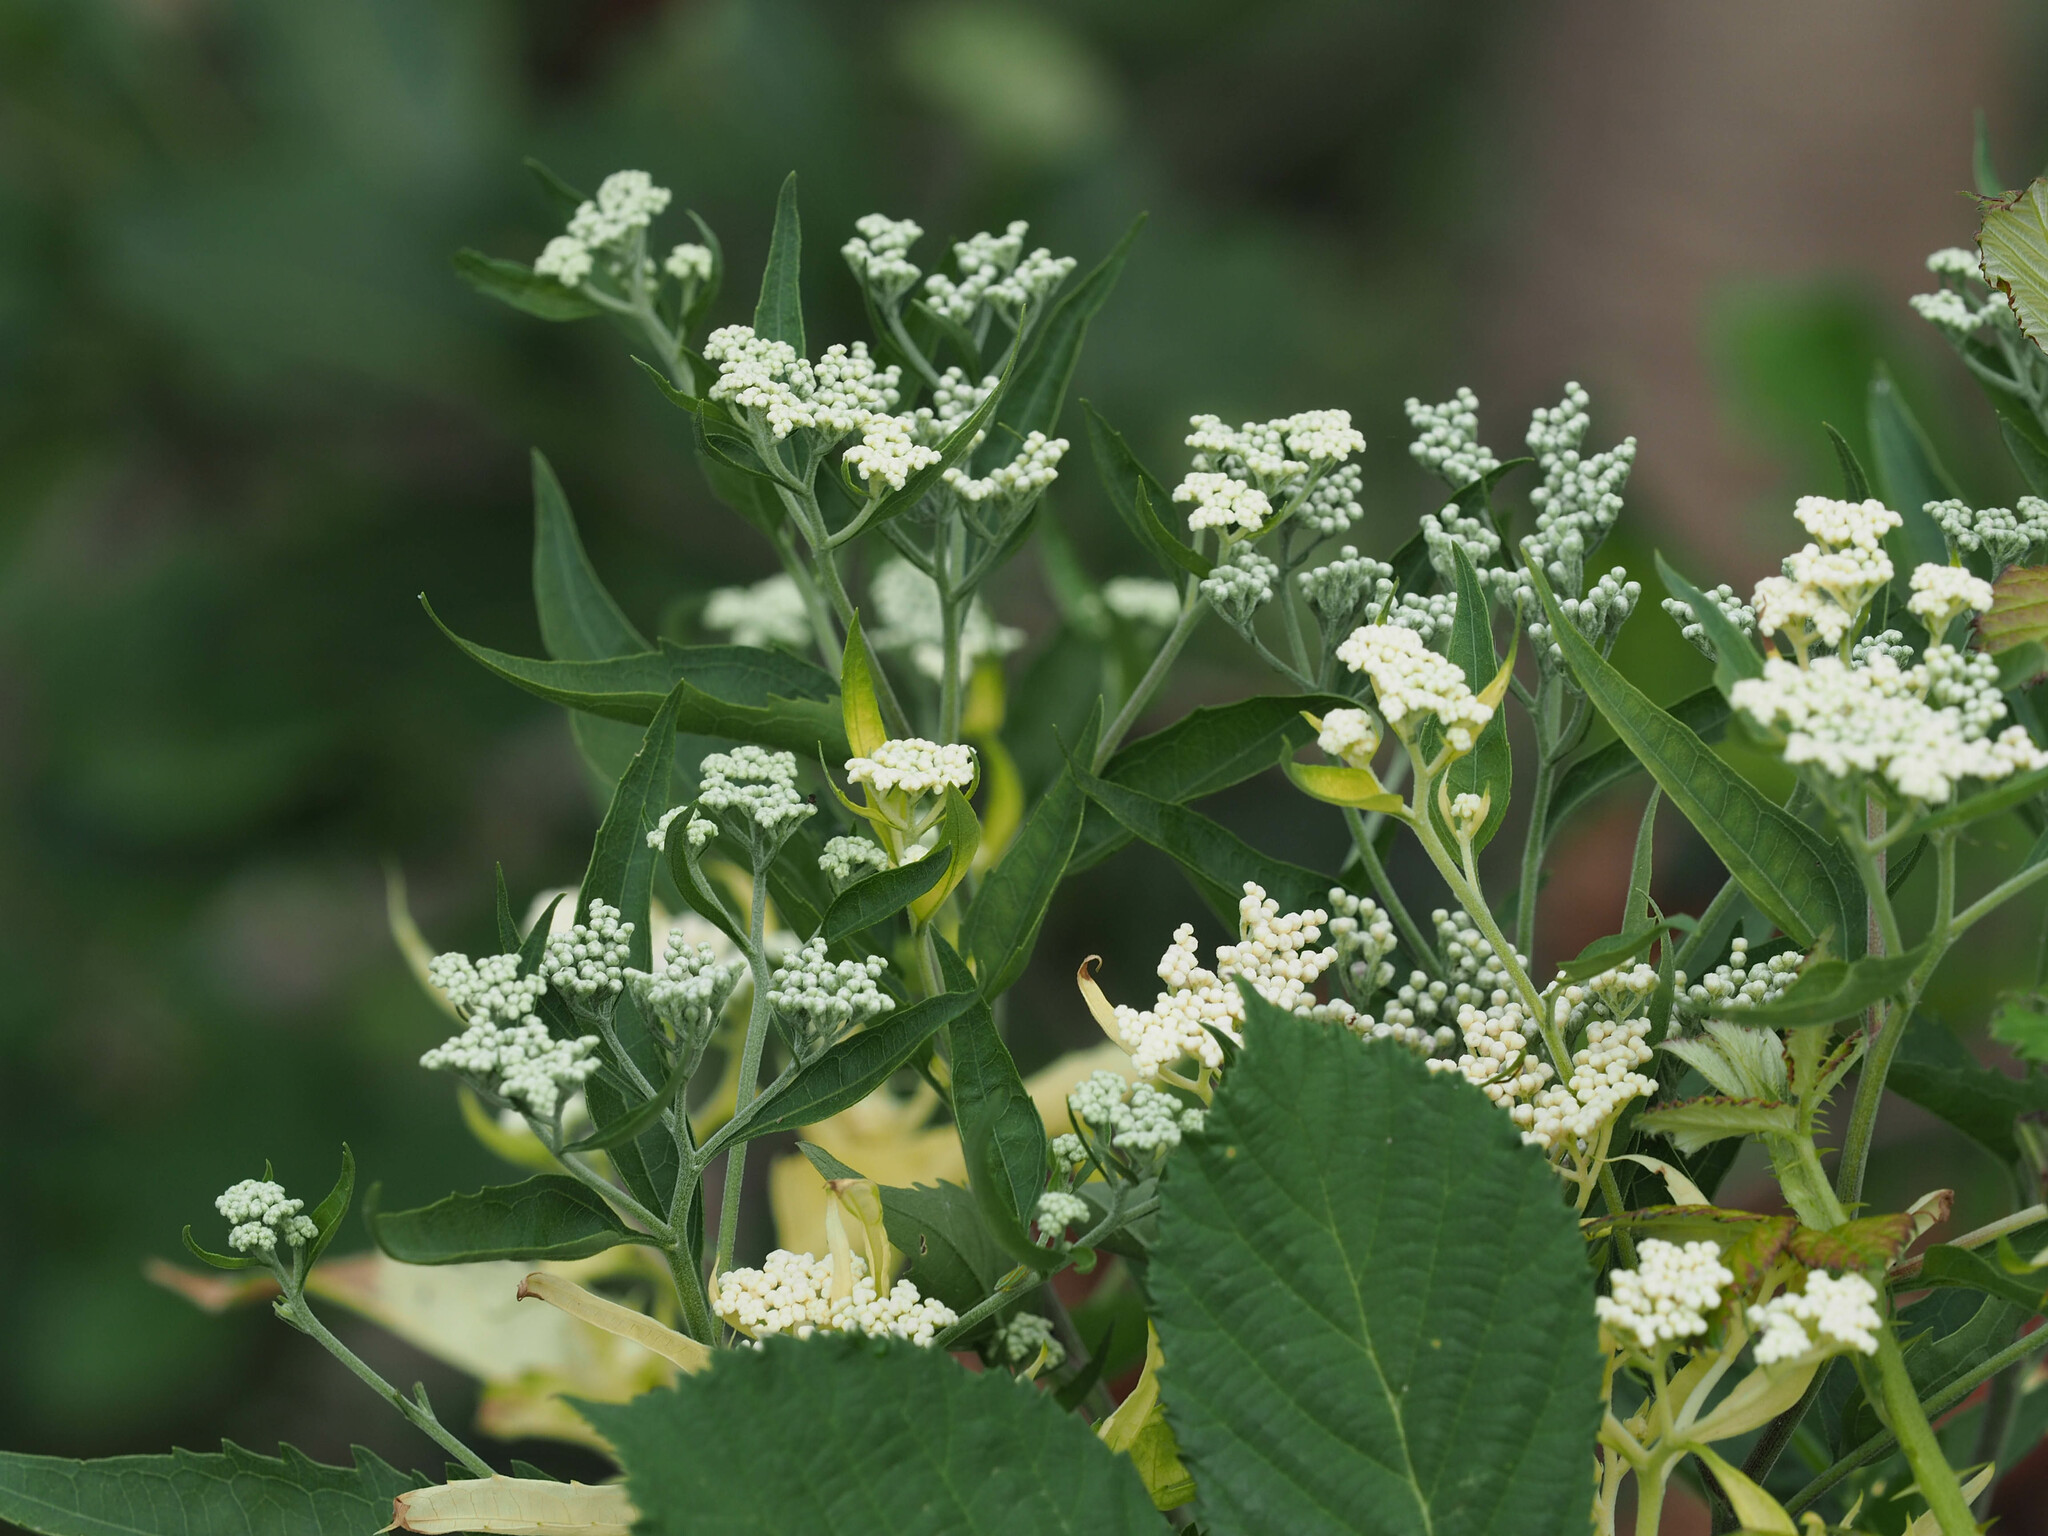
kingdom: Plantae
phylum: Tracheophyta
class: Magnoliopsida
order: Asterales
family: Asteraceae
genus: Eupatorium
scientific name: Eupatorium serotinum
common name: Late boneset
